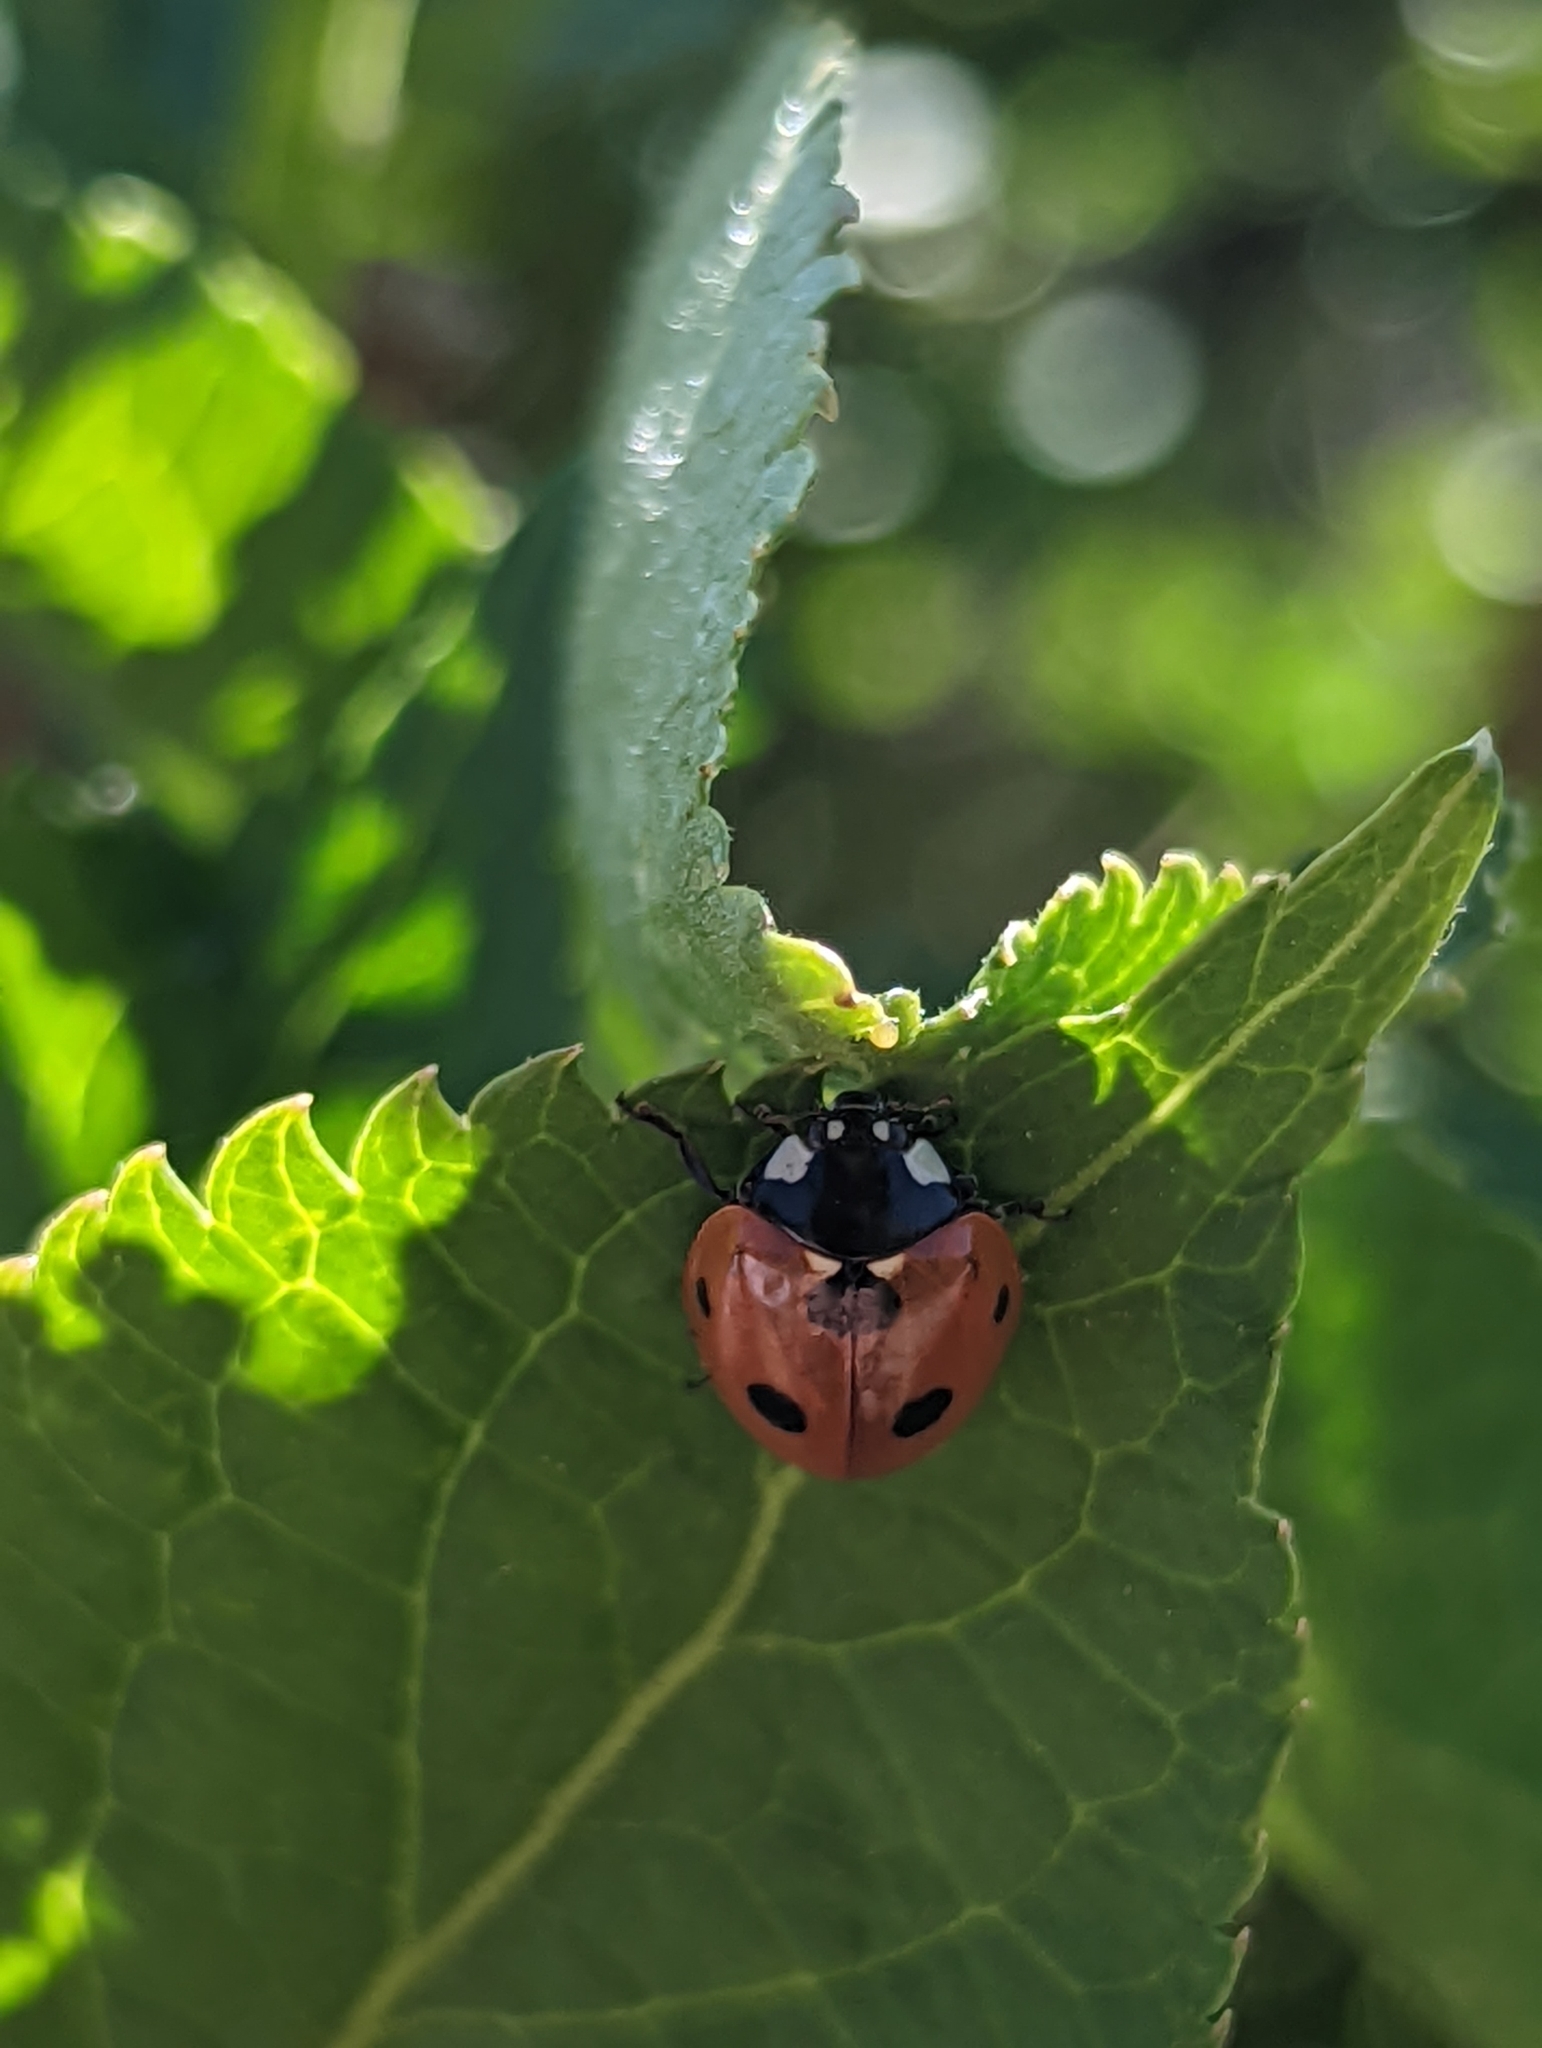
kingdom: Animalia
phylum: Arthropoda
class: Insecta
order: Coleoptera
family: Coccinellidae
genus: Coccinella
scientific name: Coccinella septempunctata
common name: Sevenspotted lady beetle
